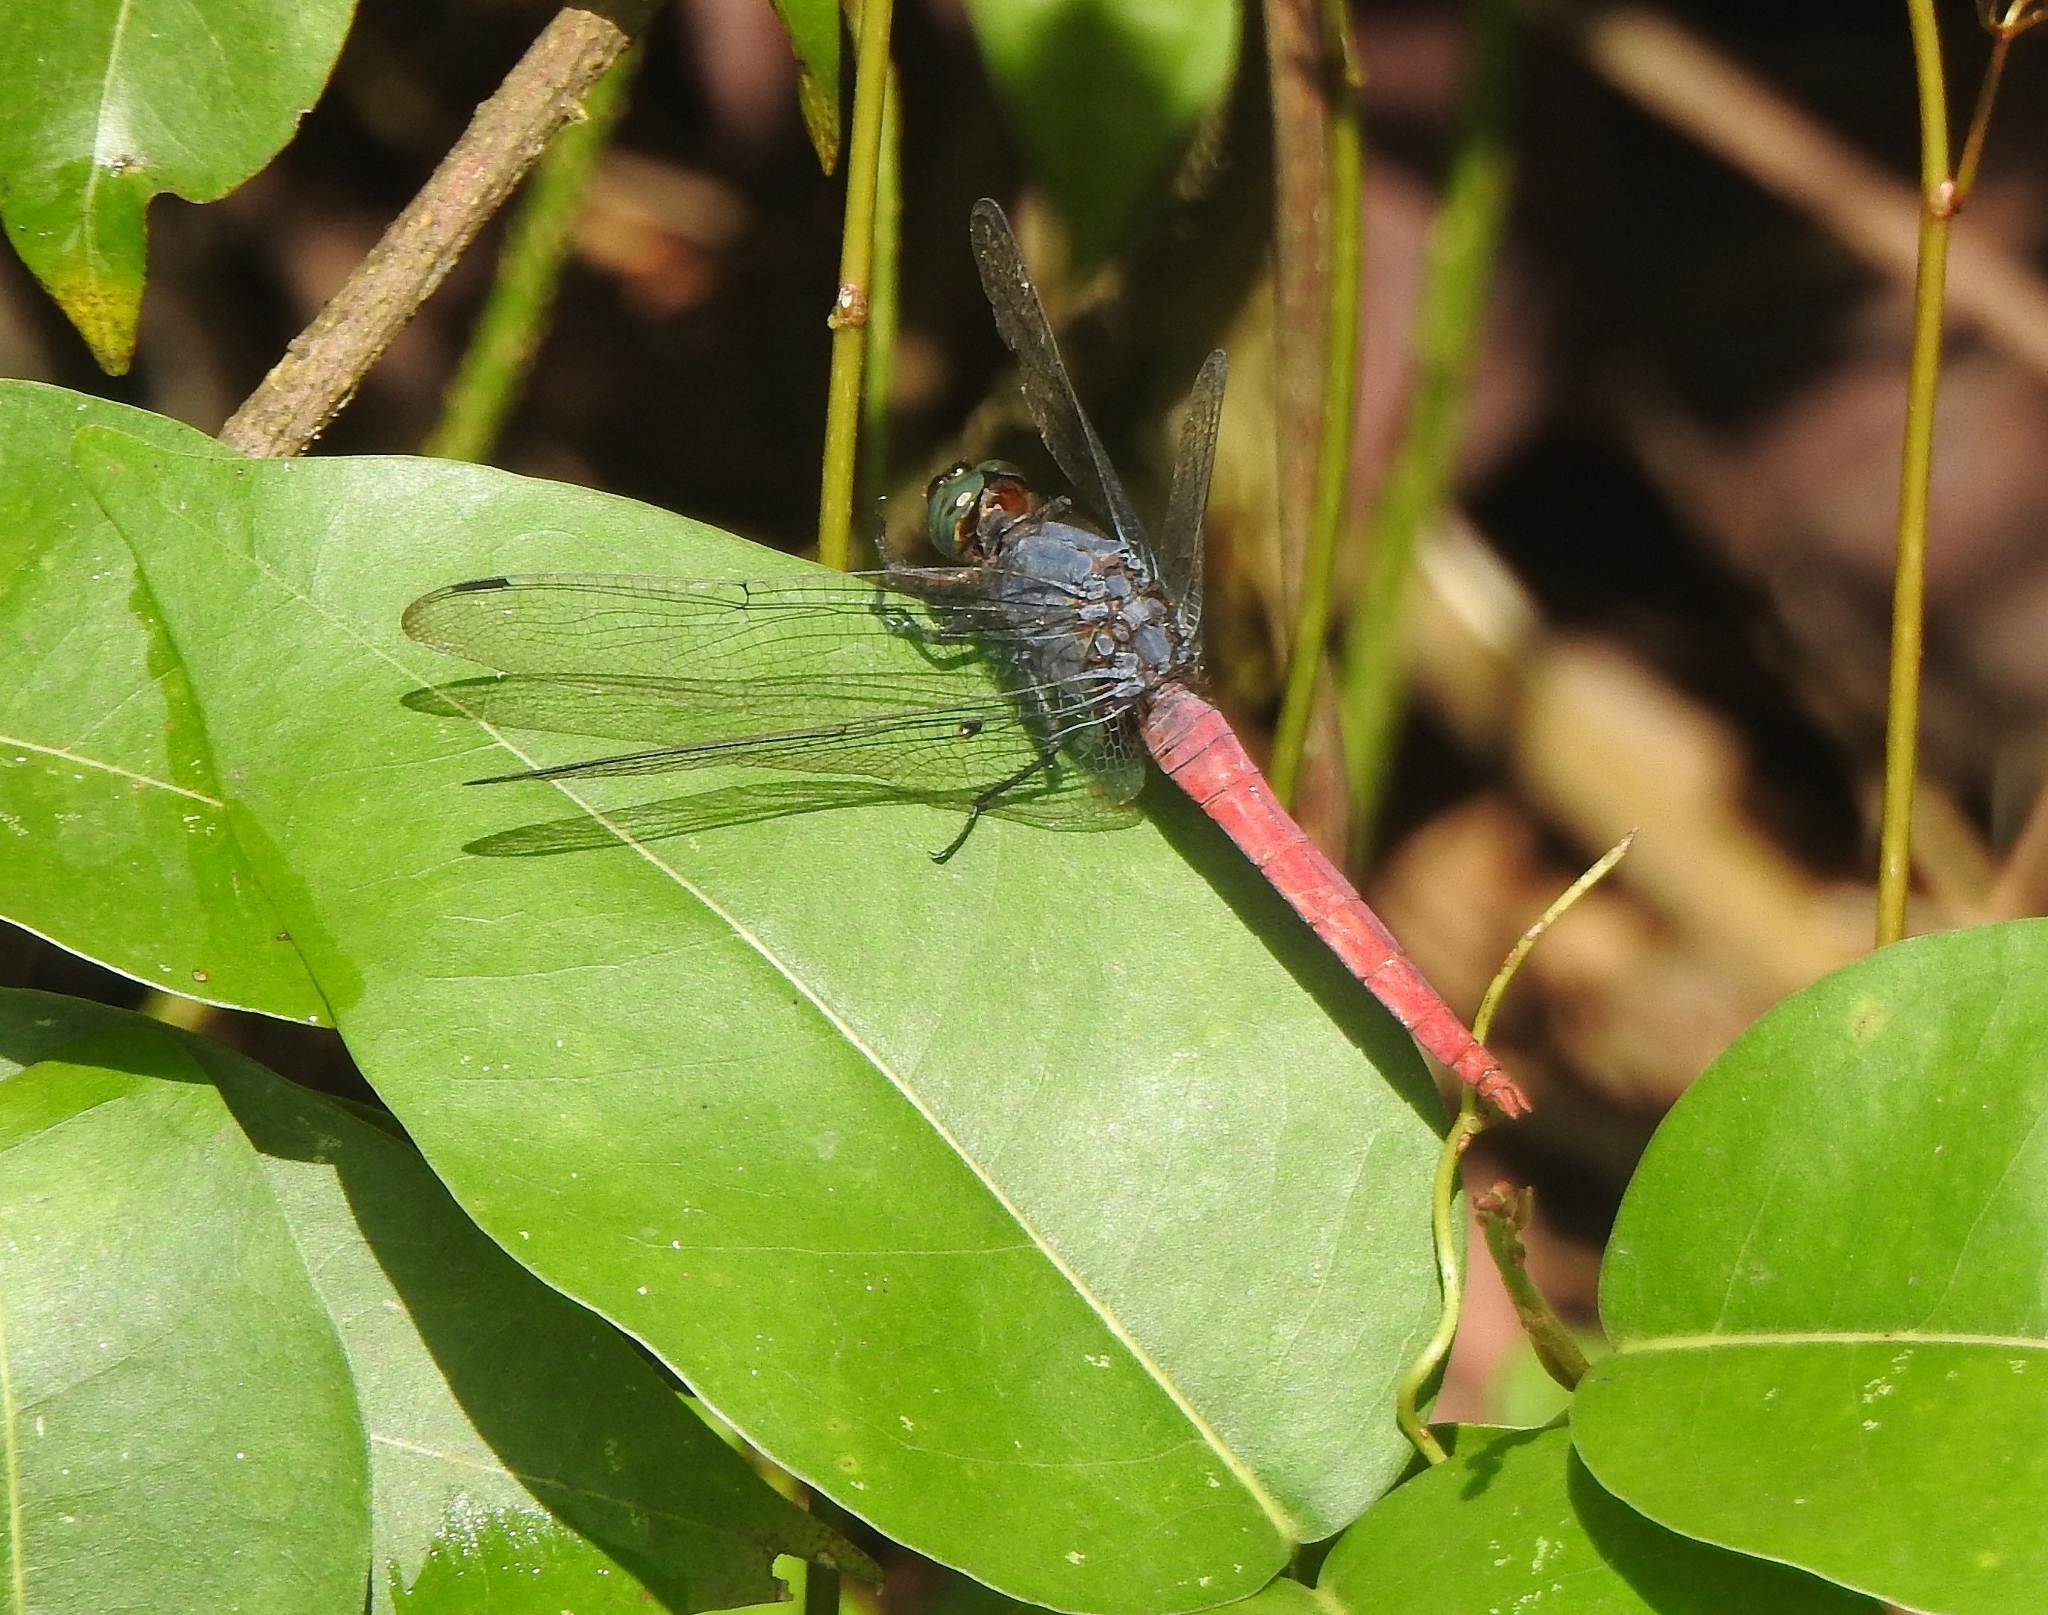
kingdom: Animalia
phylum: Arthropoda
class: Insecta
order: Odonata
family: Libellulidae
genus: Orthetrum
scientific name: Orthetrum pruinosum
